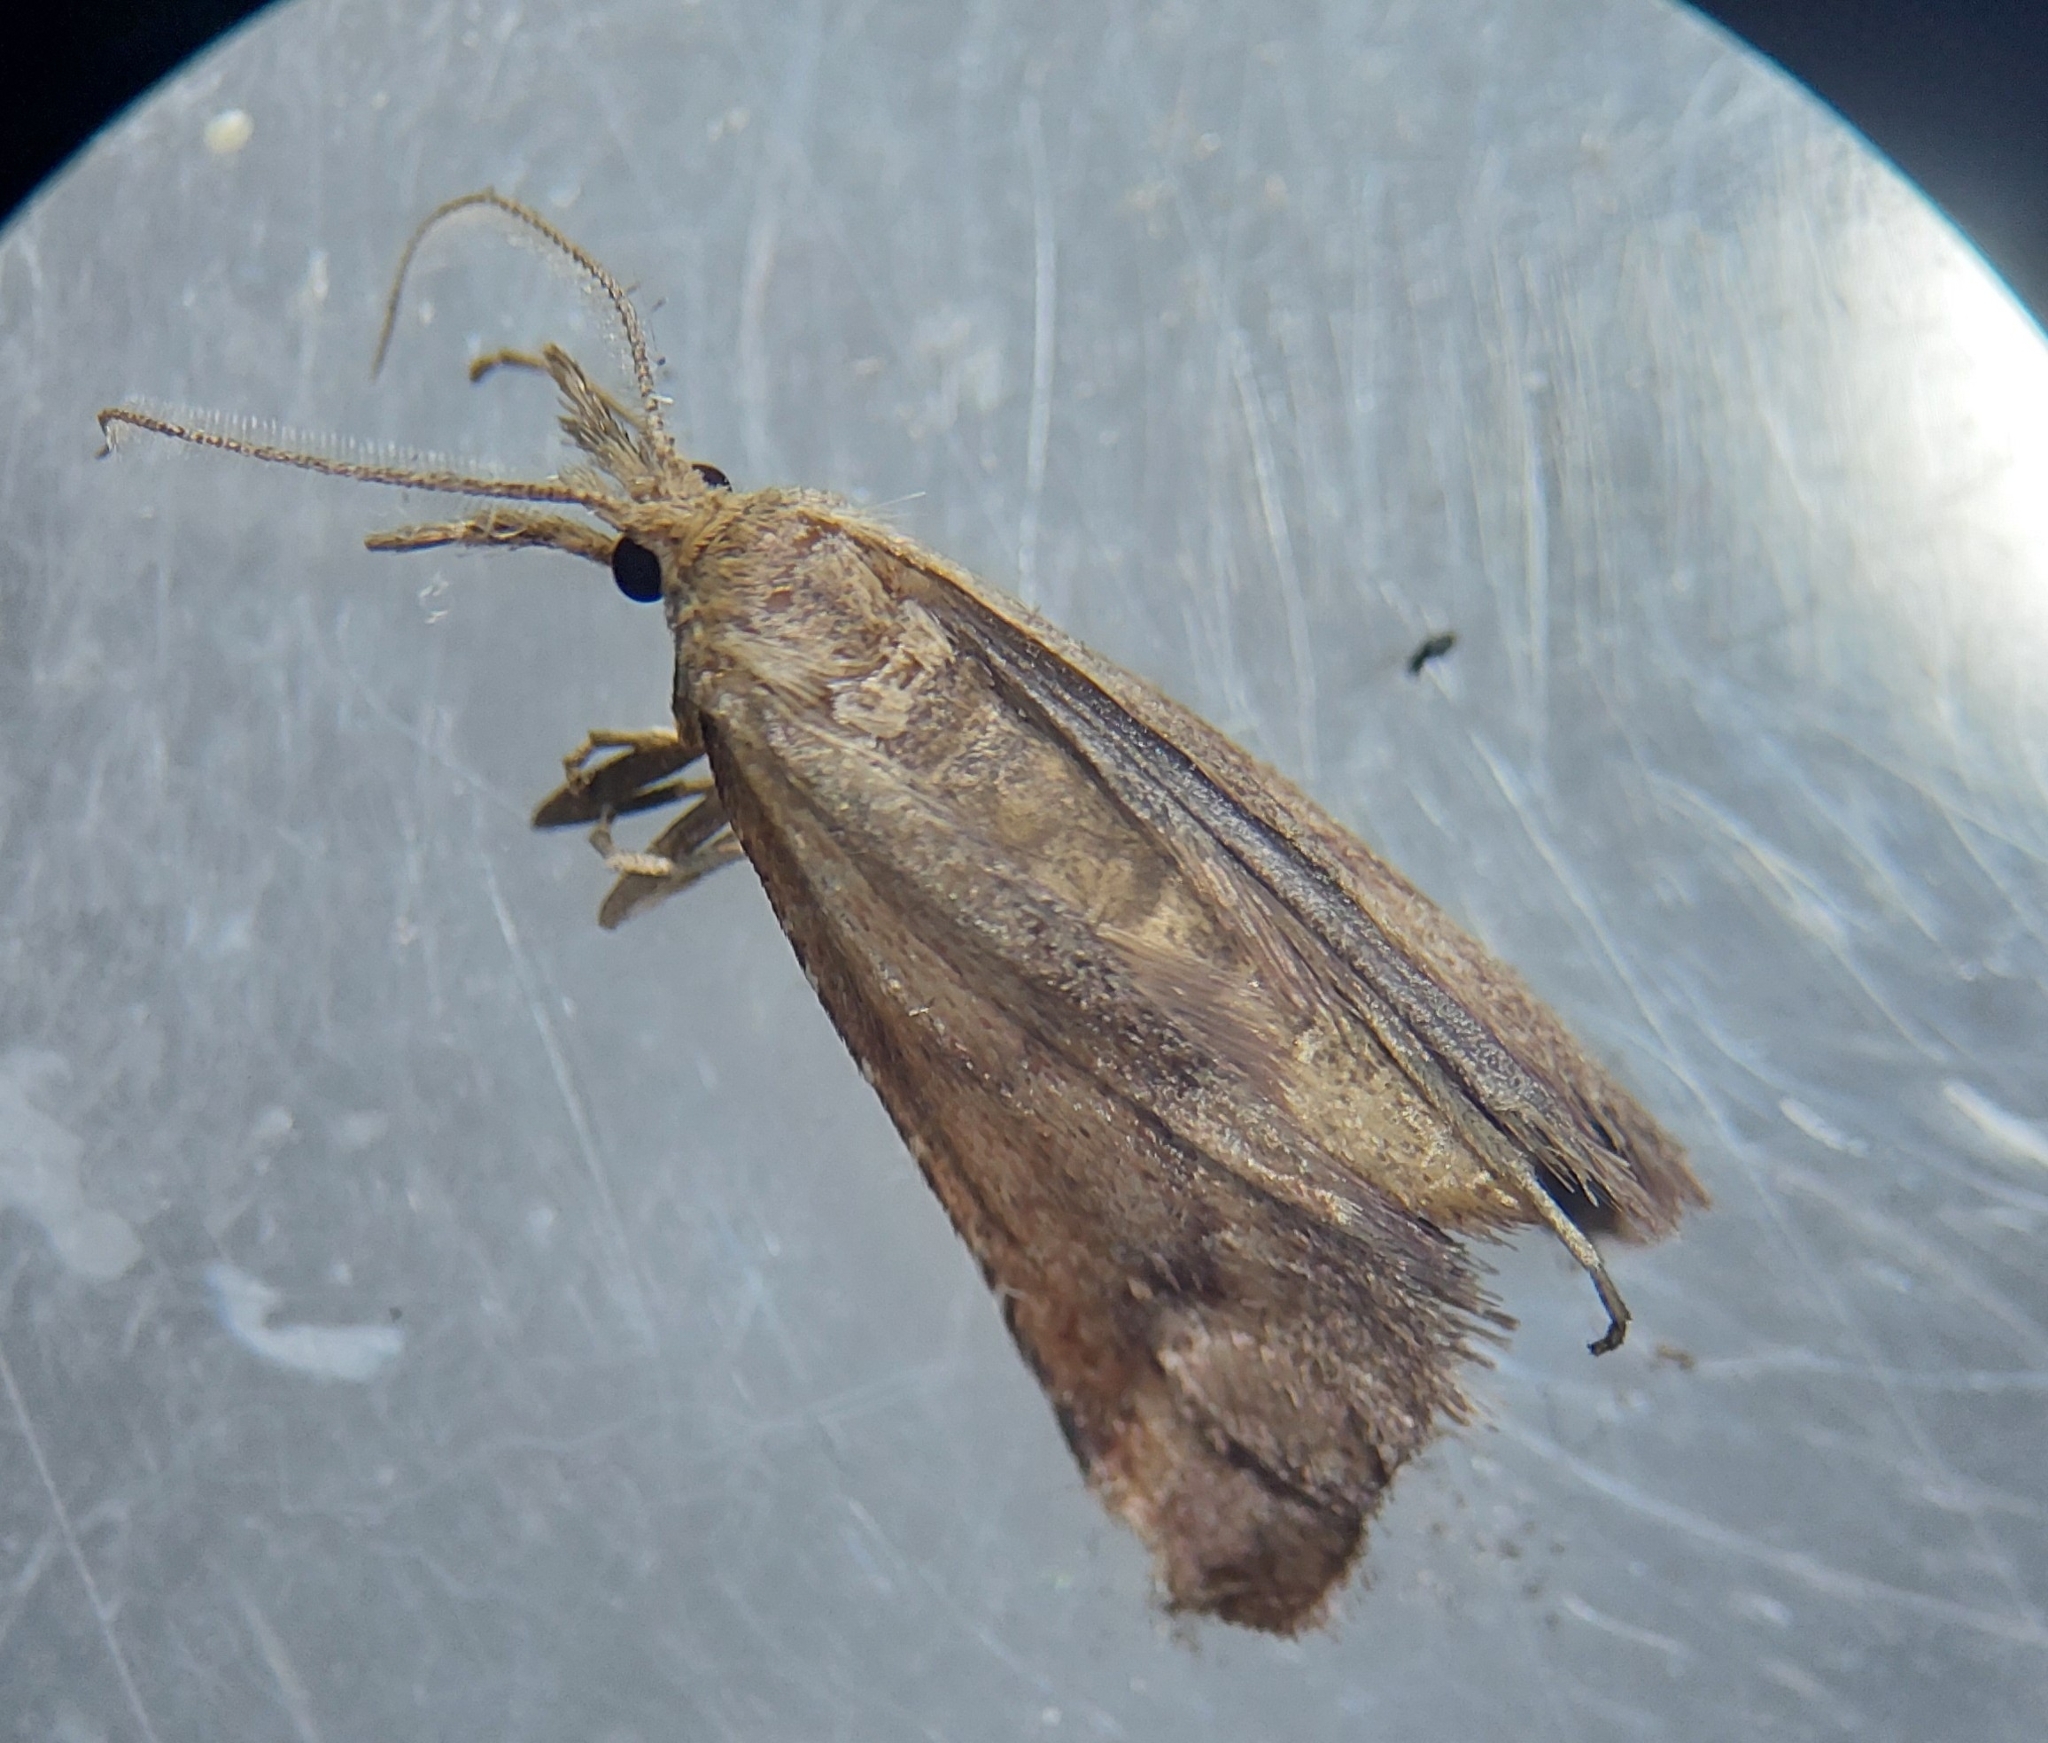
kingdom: Animalia
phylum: Arthropoda
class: Insecta
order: Lepidoptera
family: Pyralidae
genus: Synaphe
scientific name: Synaphe punctalis
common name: Long-legged tabby
